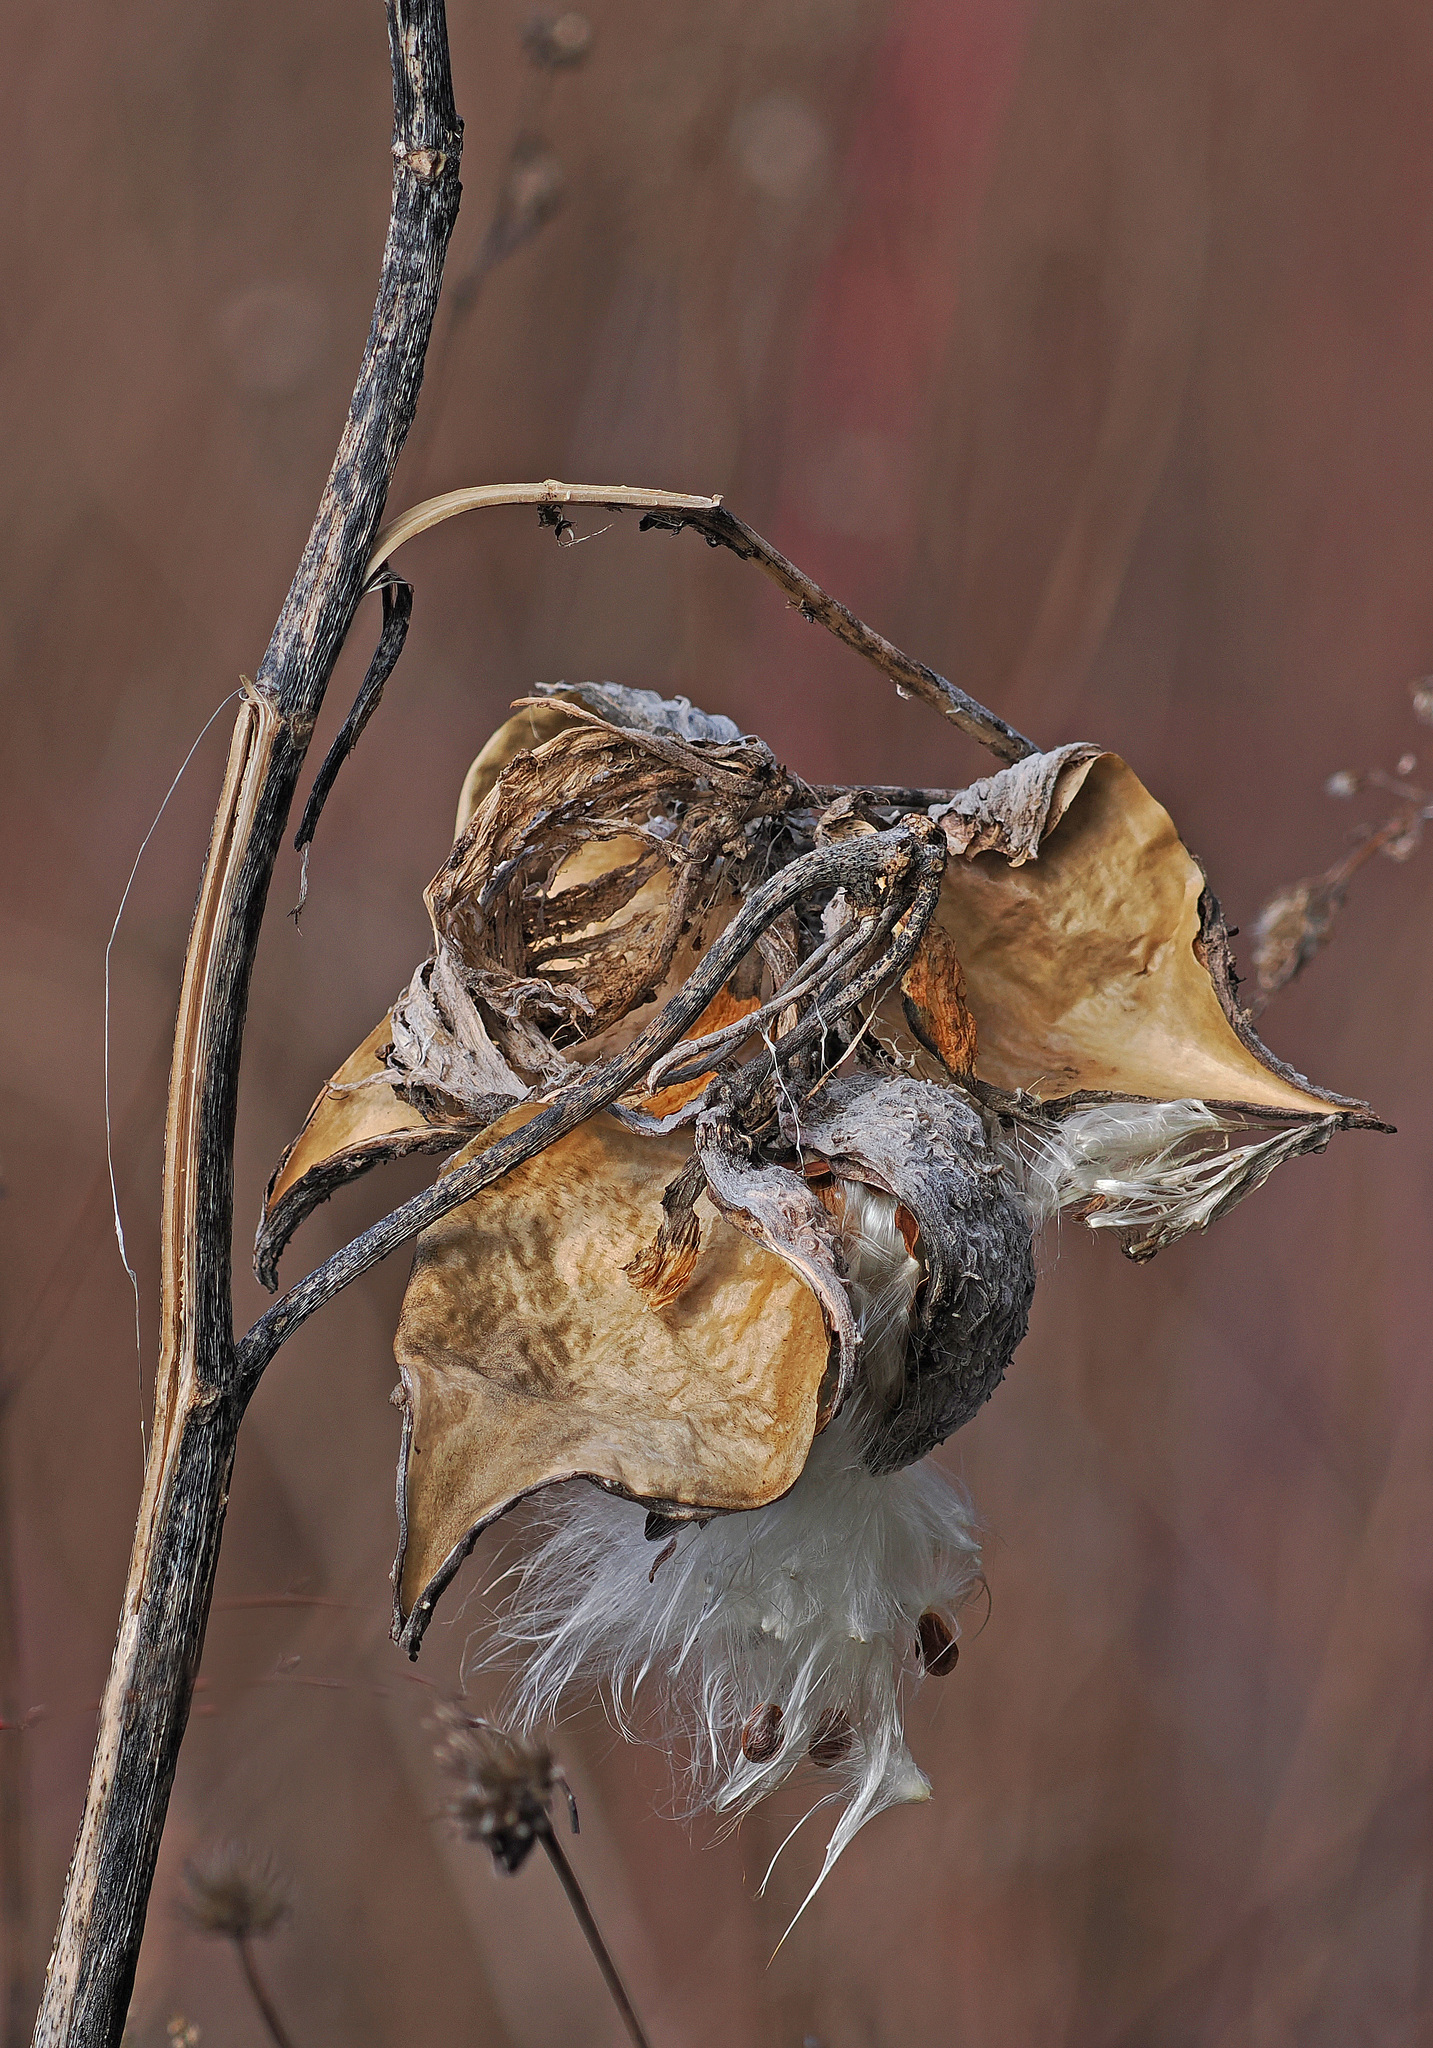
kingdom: Plantae
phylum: Tracheophyta
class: Magnoliopsida
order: Gentianales
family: Apocynaceae
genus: Asclepias
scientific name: Asclepias syriaca
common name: Common milkweed
